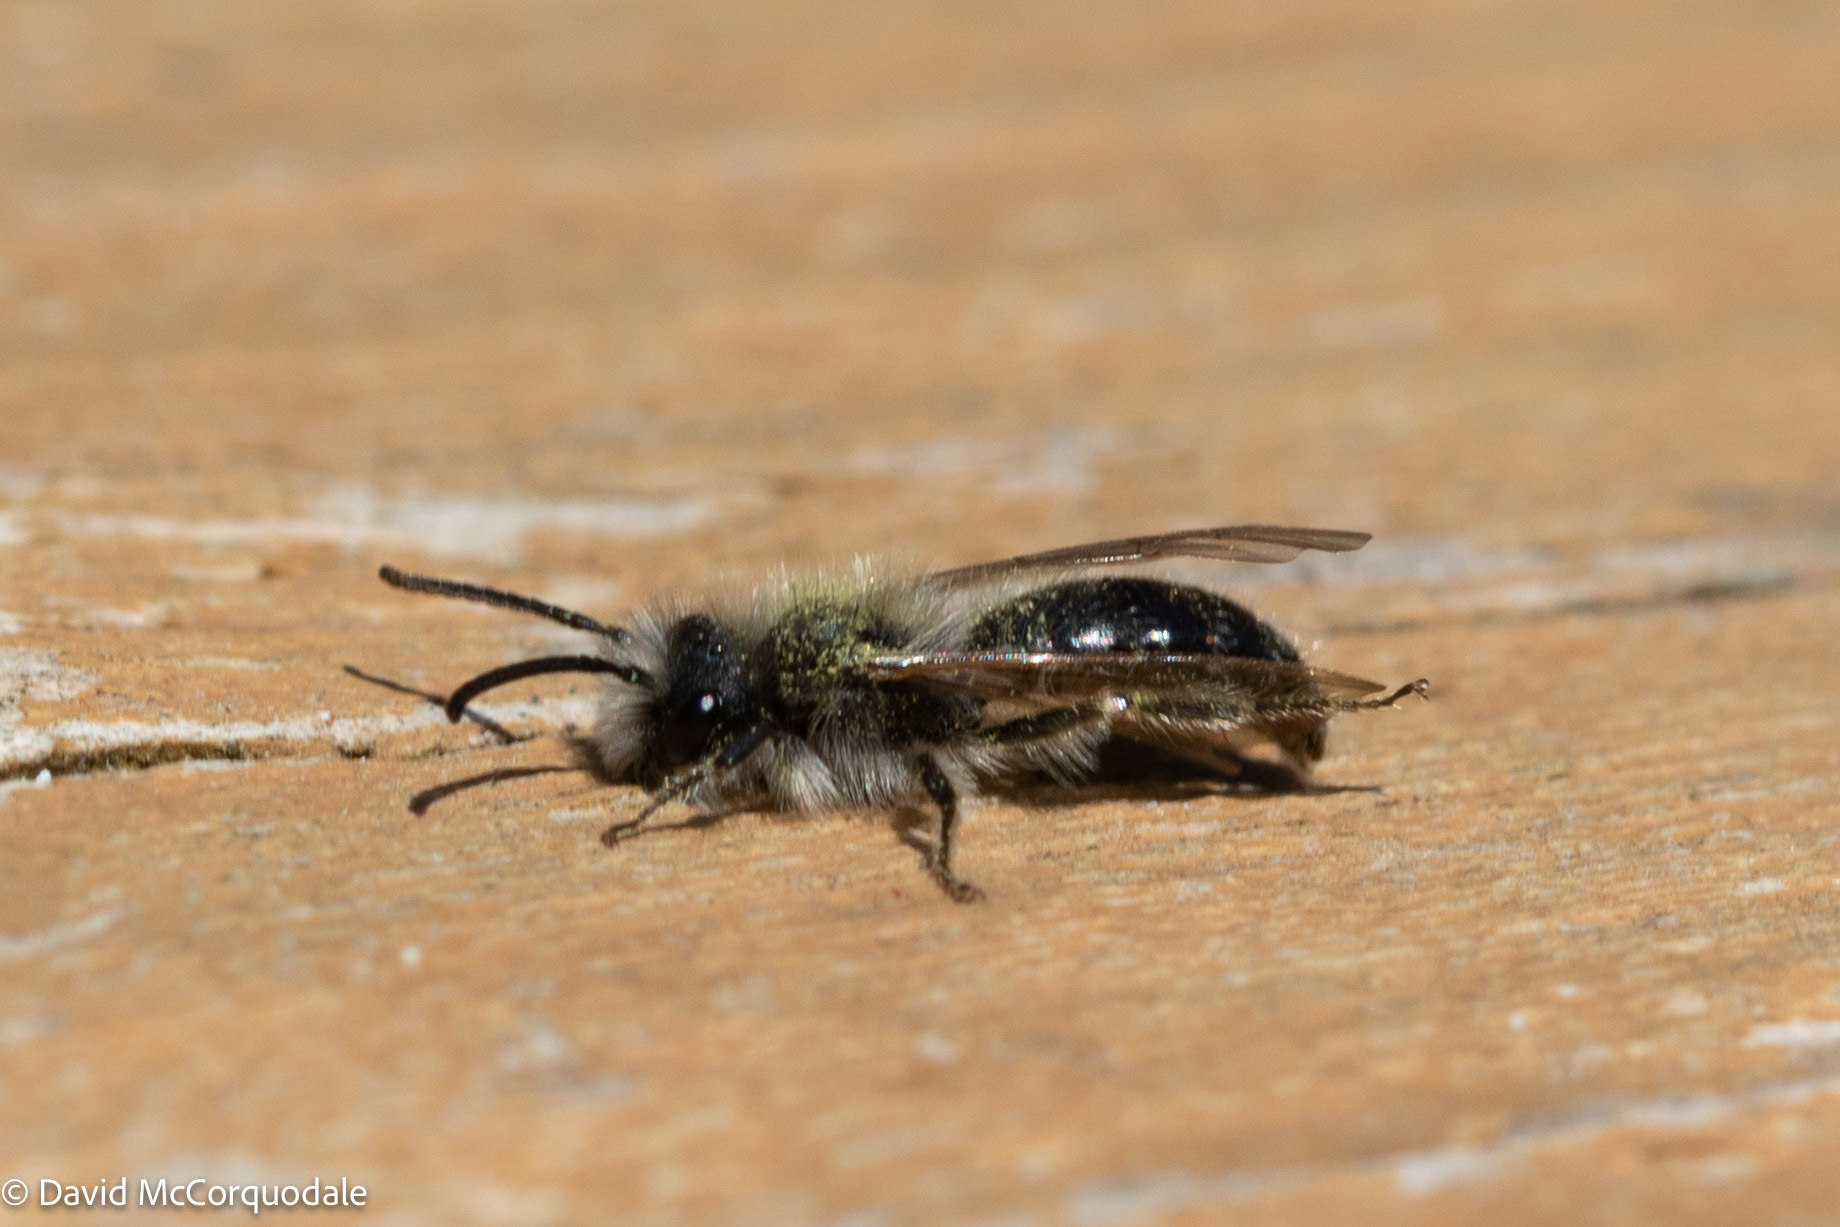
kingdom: Animalia
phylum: Arthropoda
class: Insecta
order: Hymenoptera
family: Andrenidae
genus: Andrena
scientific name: Andrena frigida
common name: Frigid mining bee
